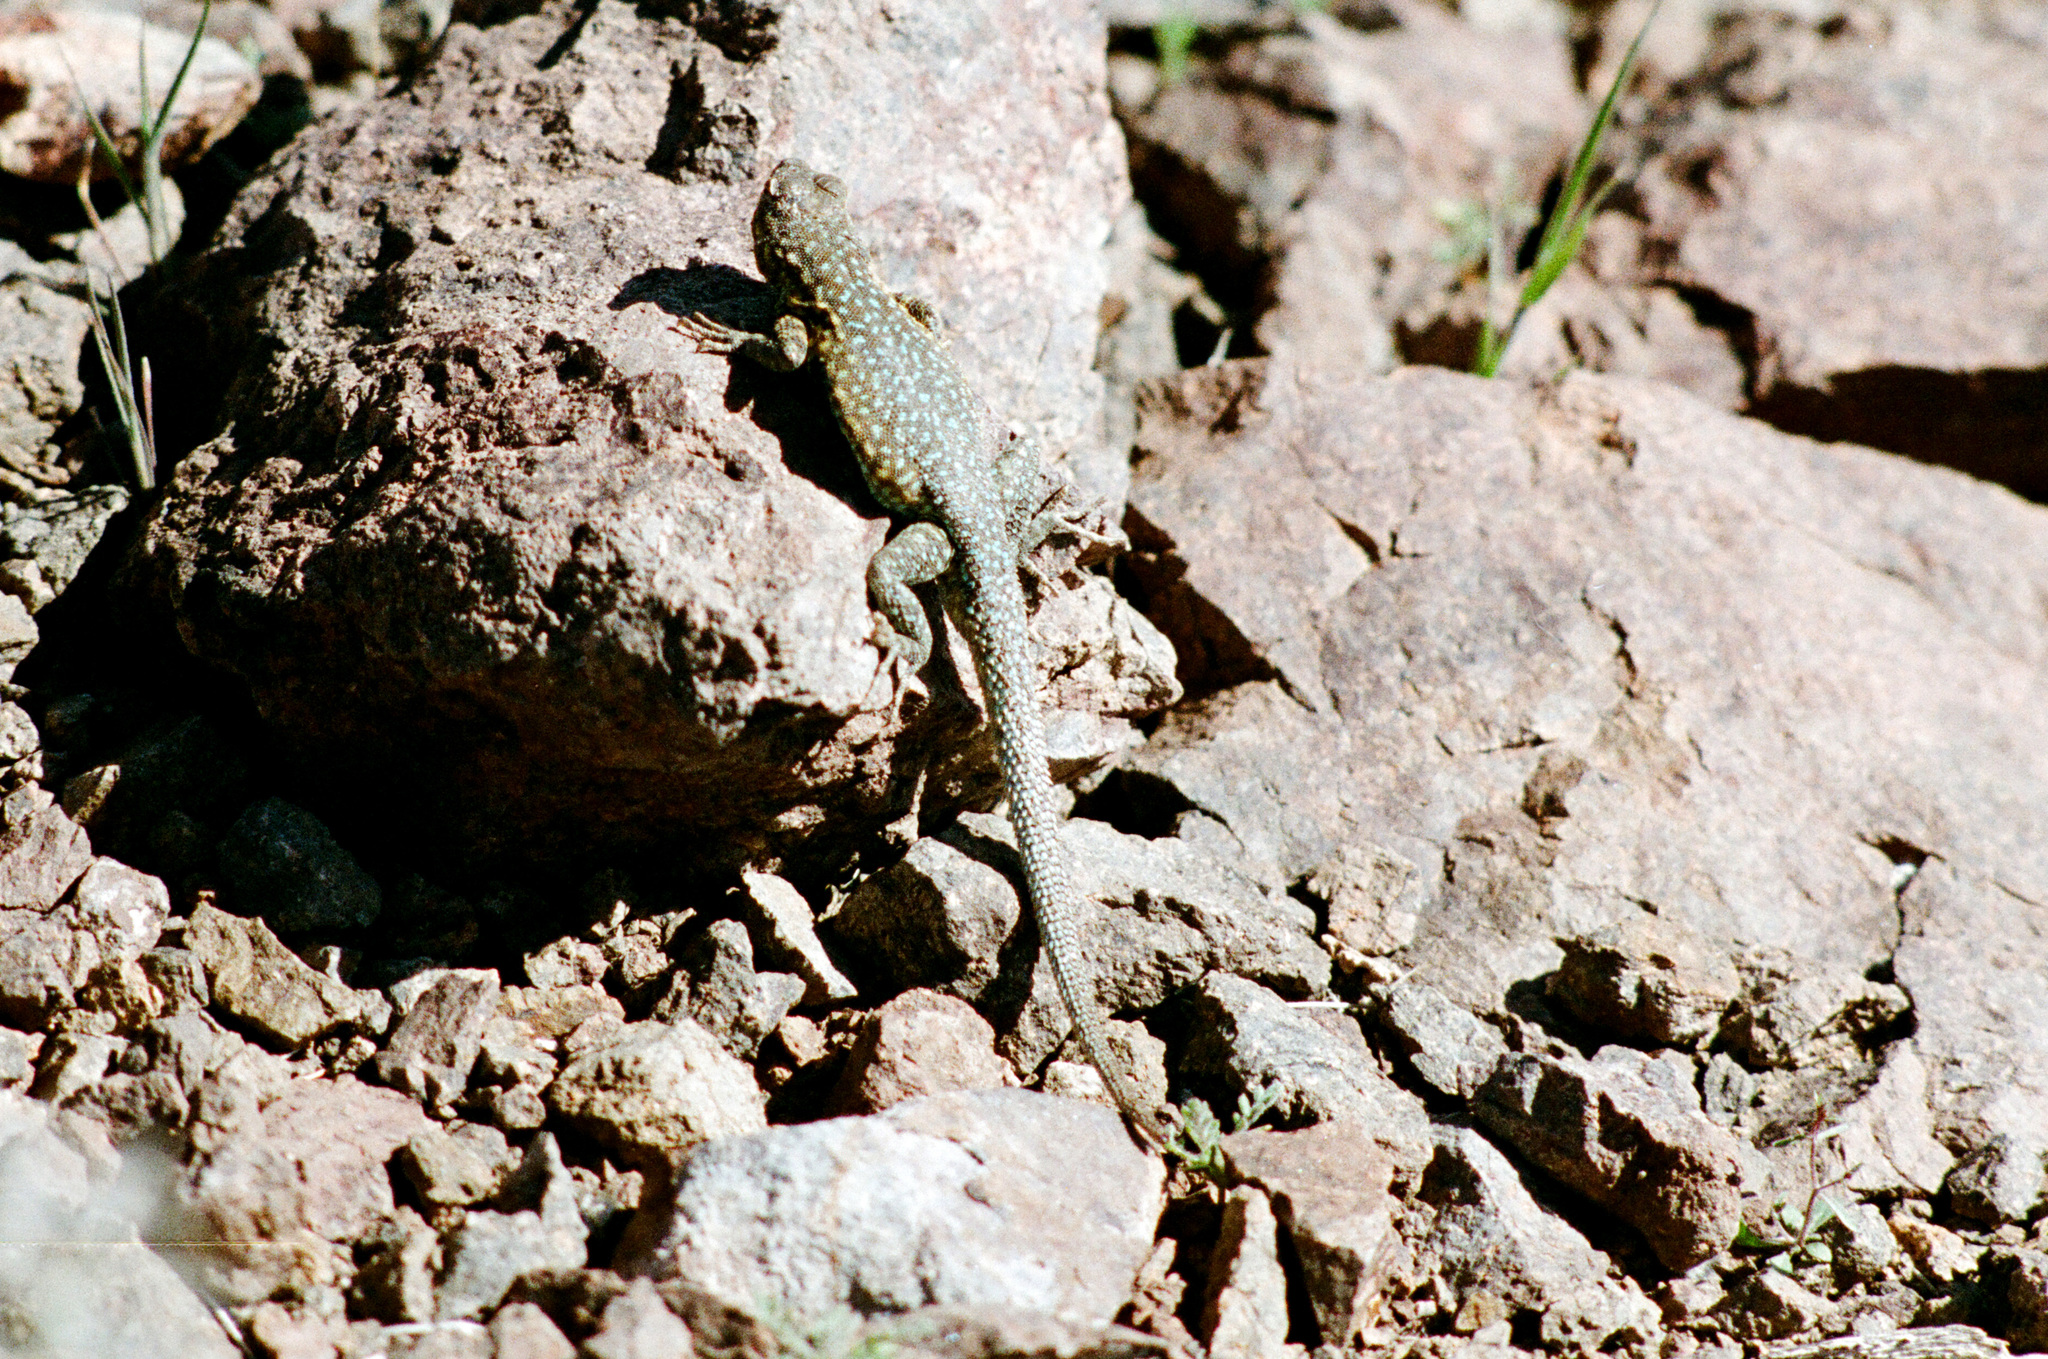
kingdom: Animalia
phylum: Chordata
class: Squamata
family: Phrynosomatidae
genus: Uta
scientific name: Uta stansburiana
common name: Side-blotched lizard
